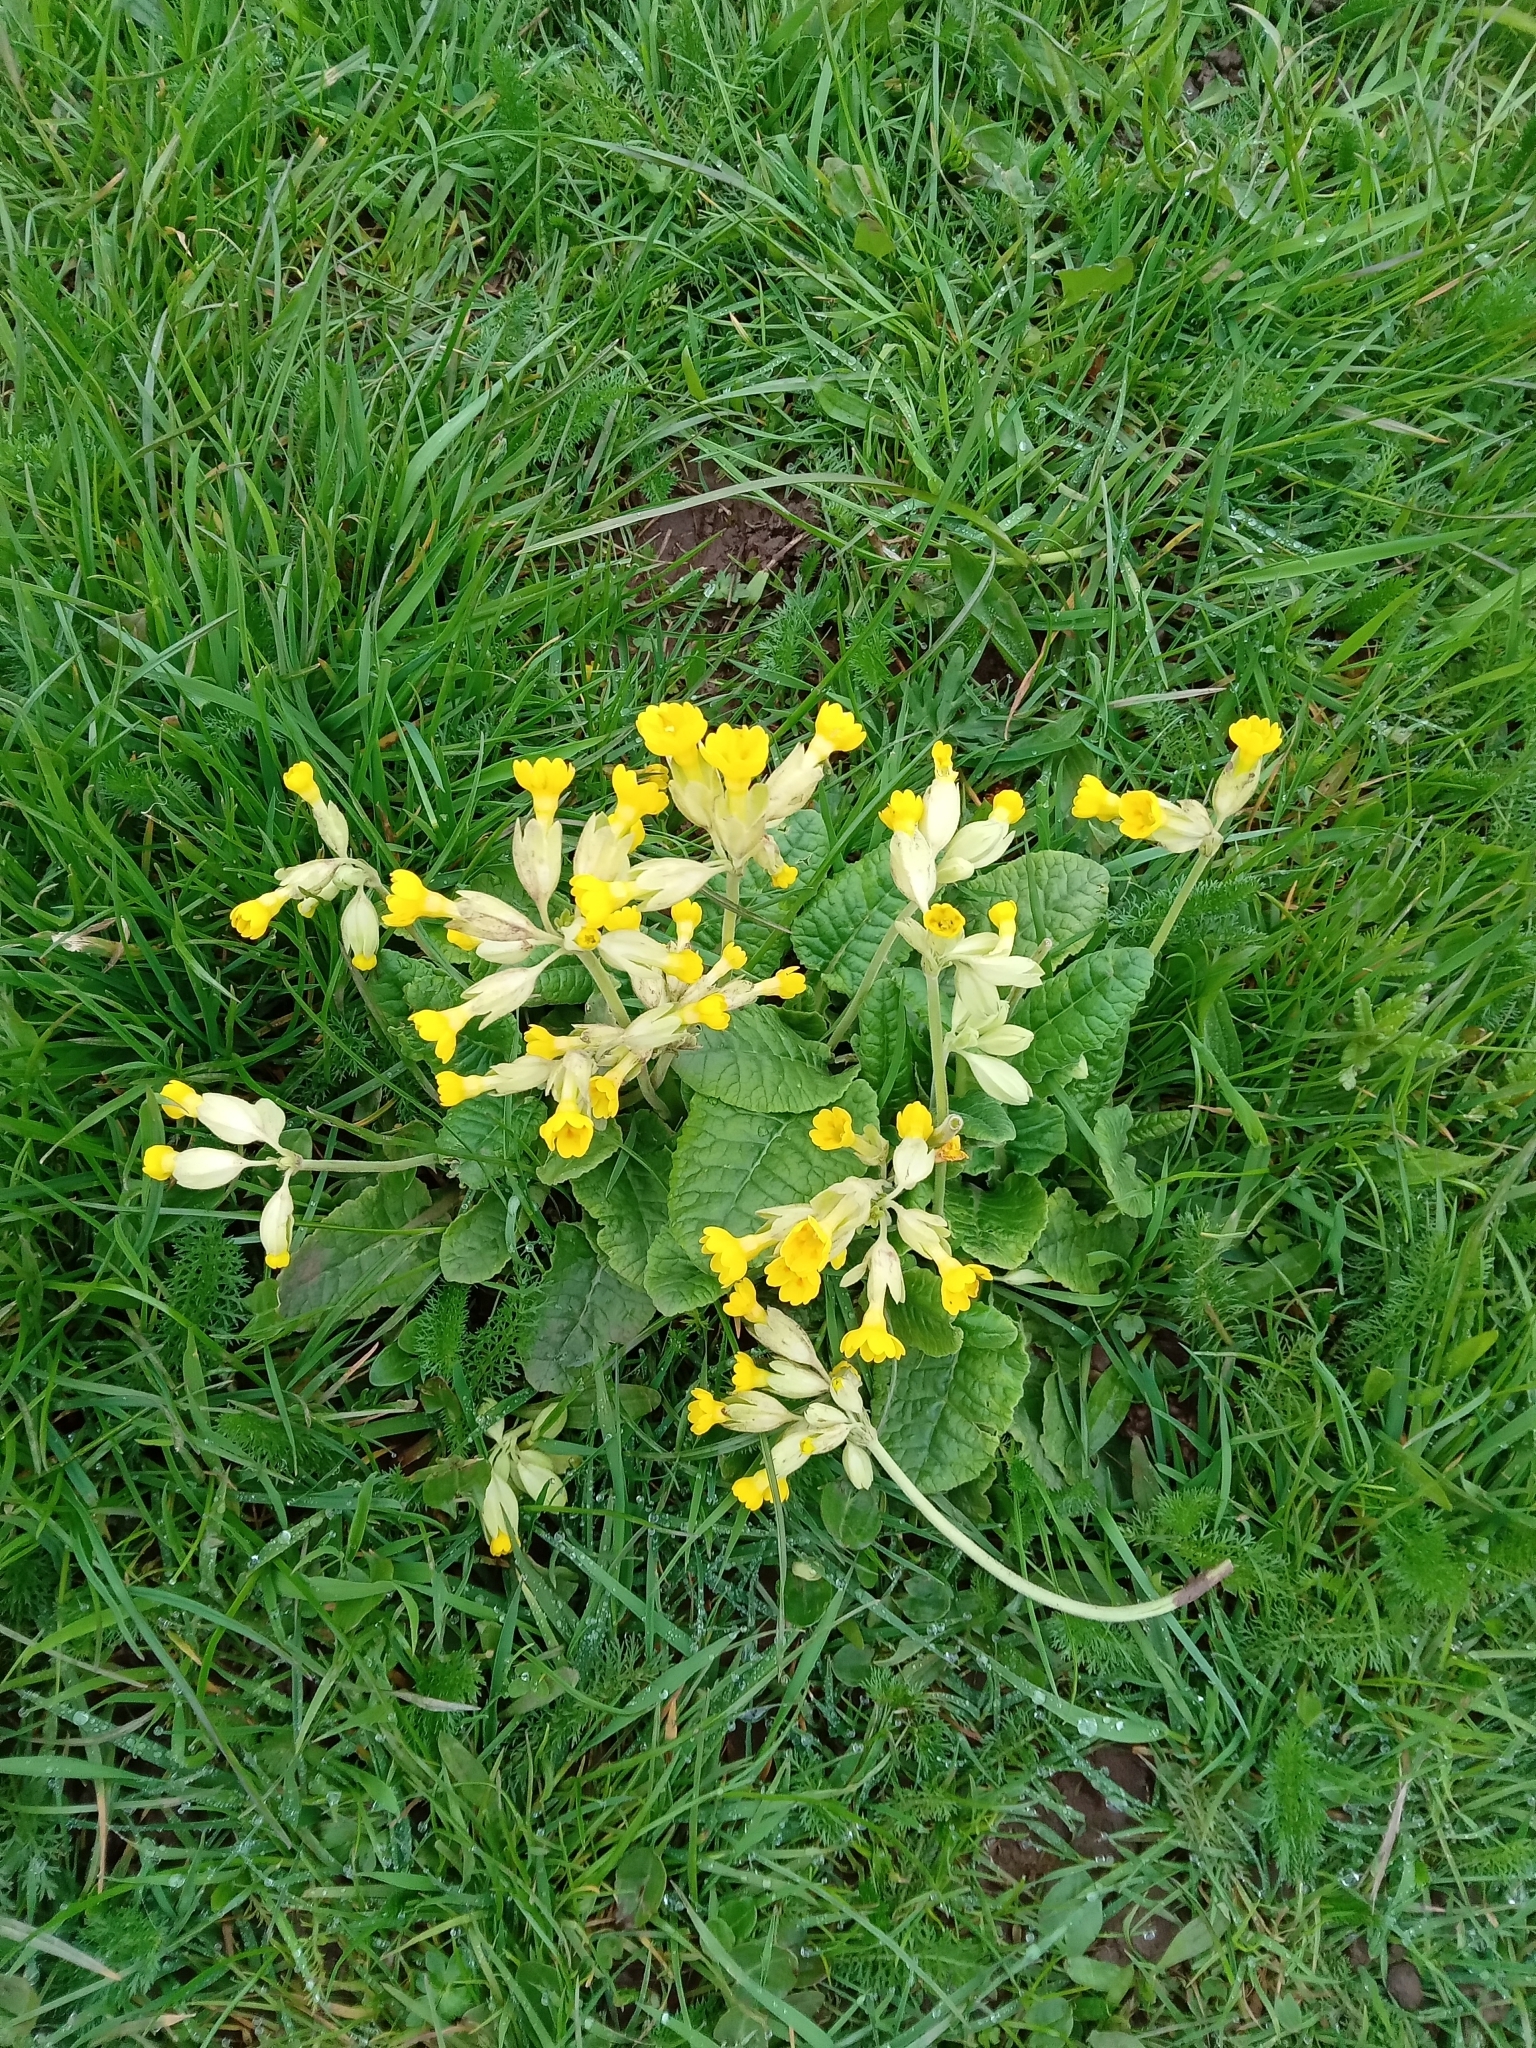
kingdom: Plantae
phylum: Tracheophyta
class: Magnoliopsida
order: Ericales
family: Primulaceae
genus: Primula
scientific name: Primula veris
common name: Cowslip
